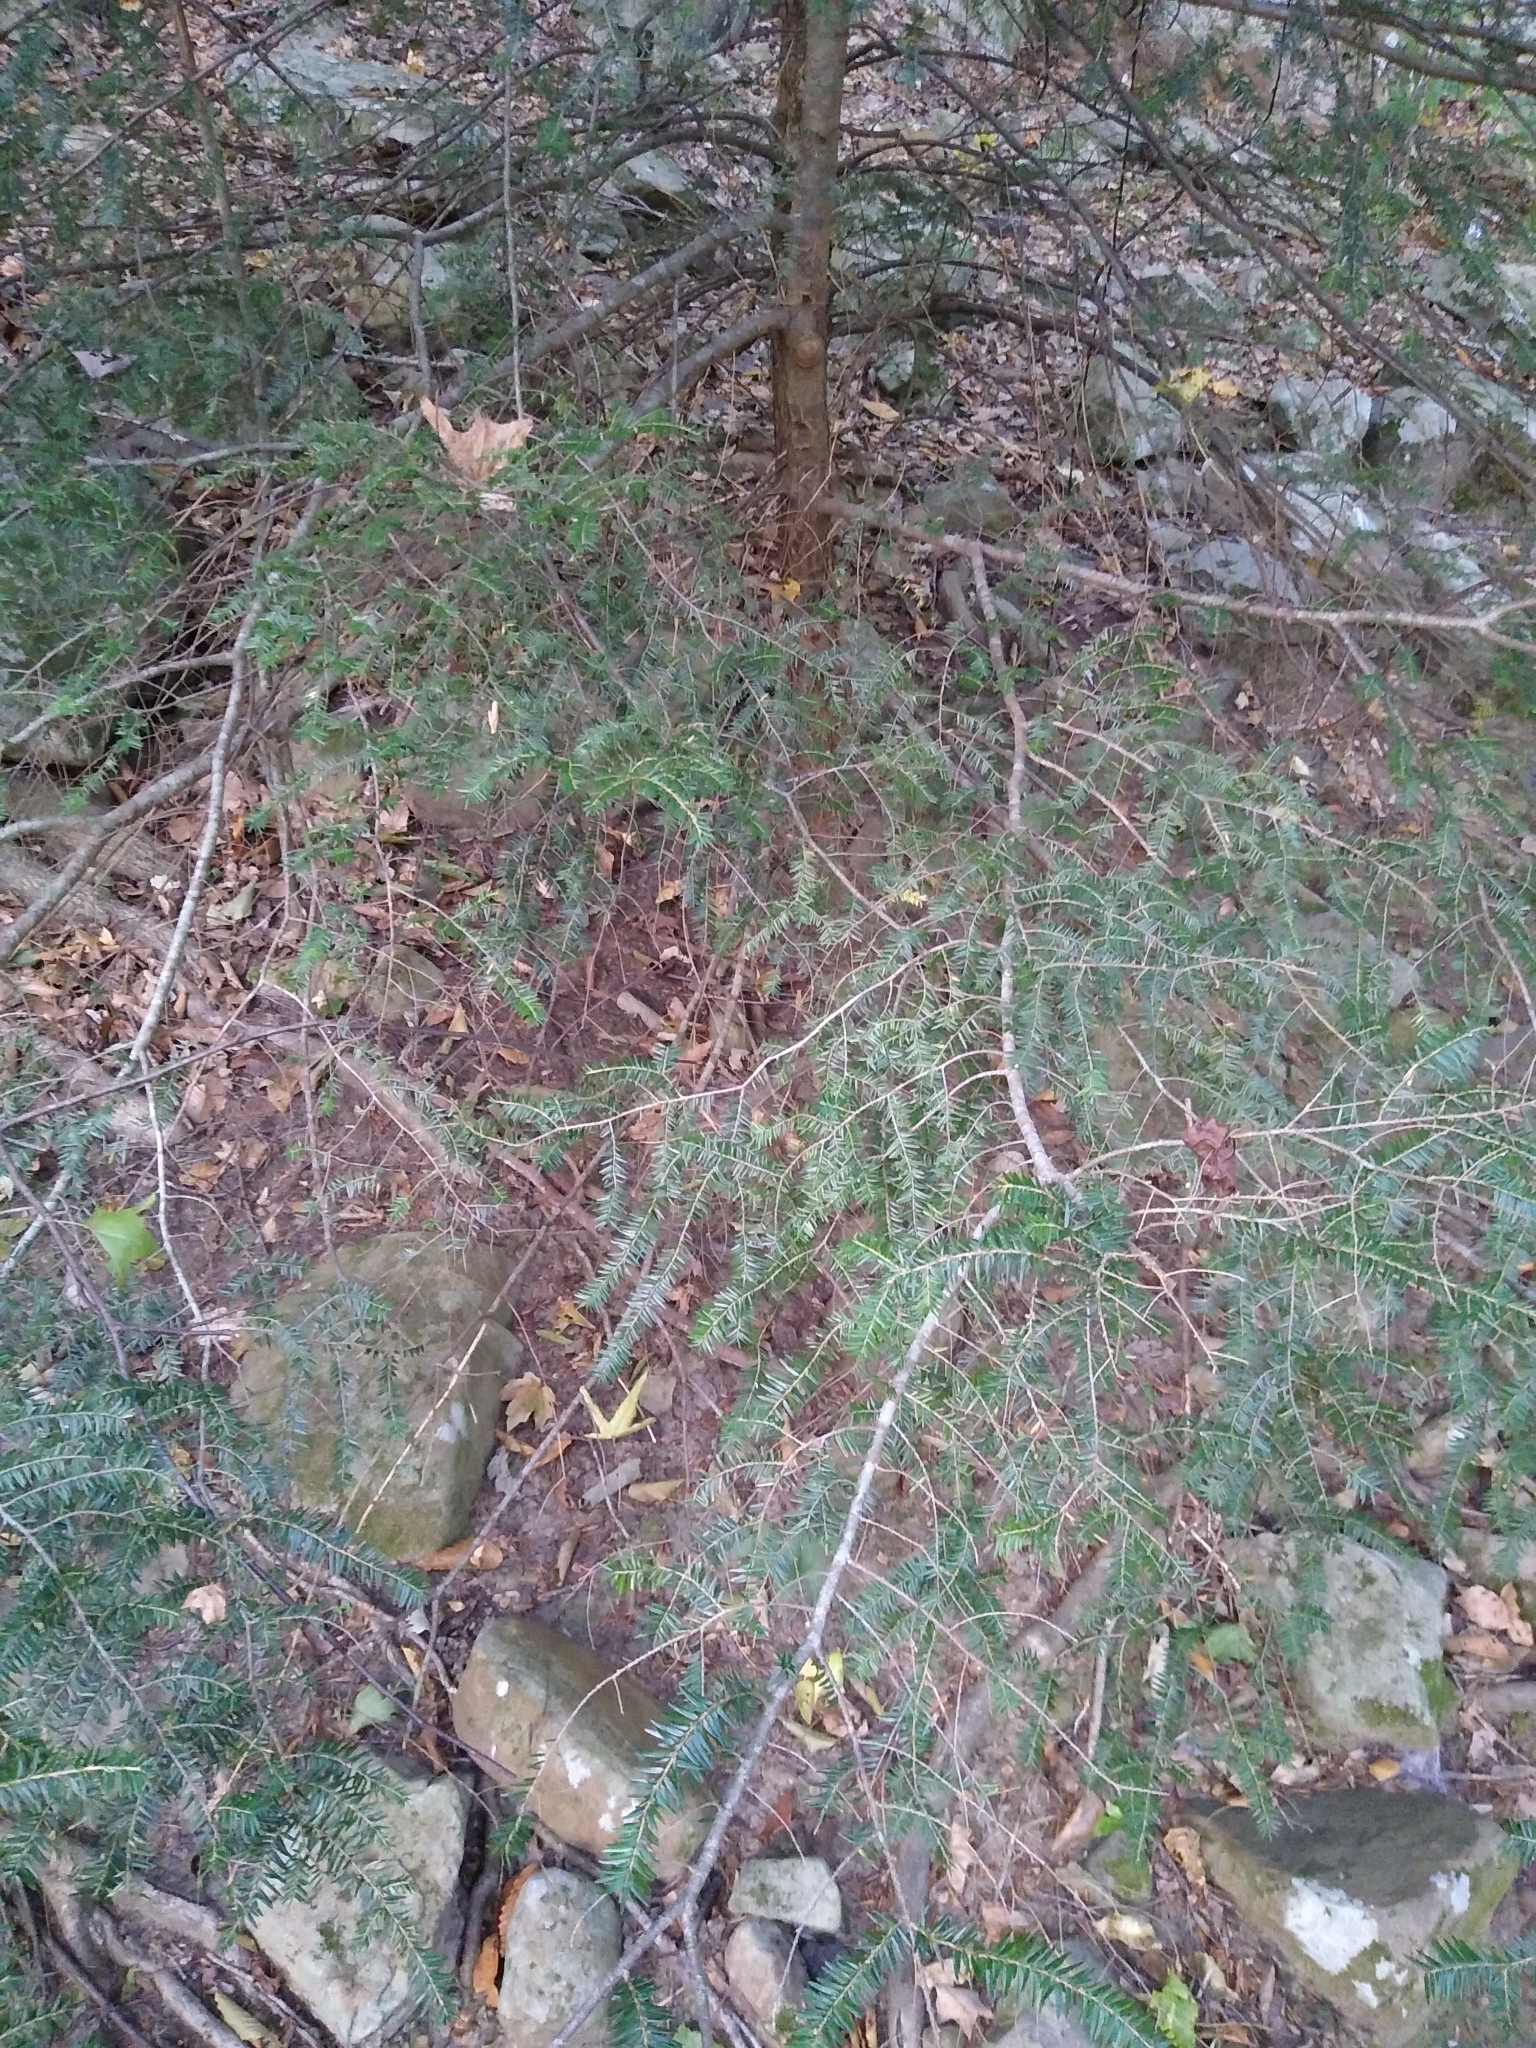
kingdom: Plantae
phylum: Tracheophyta
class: Pinopsida
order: Pinales
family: Pinaceae
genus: Tsuga
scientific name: Tsuga canadensis
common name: Eastern hemlock
